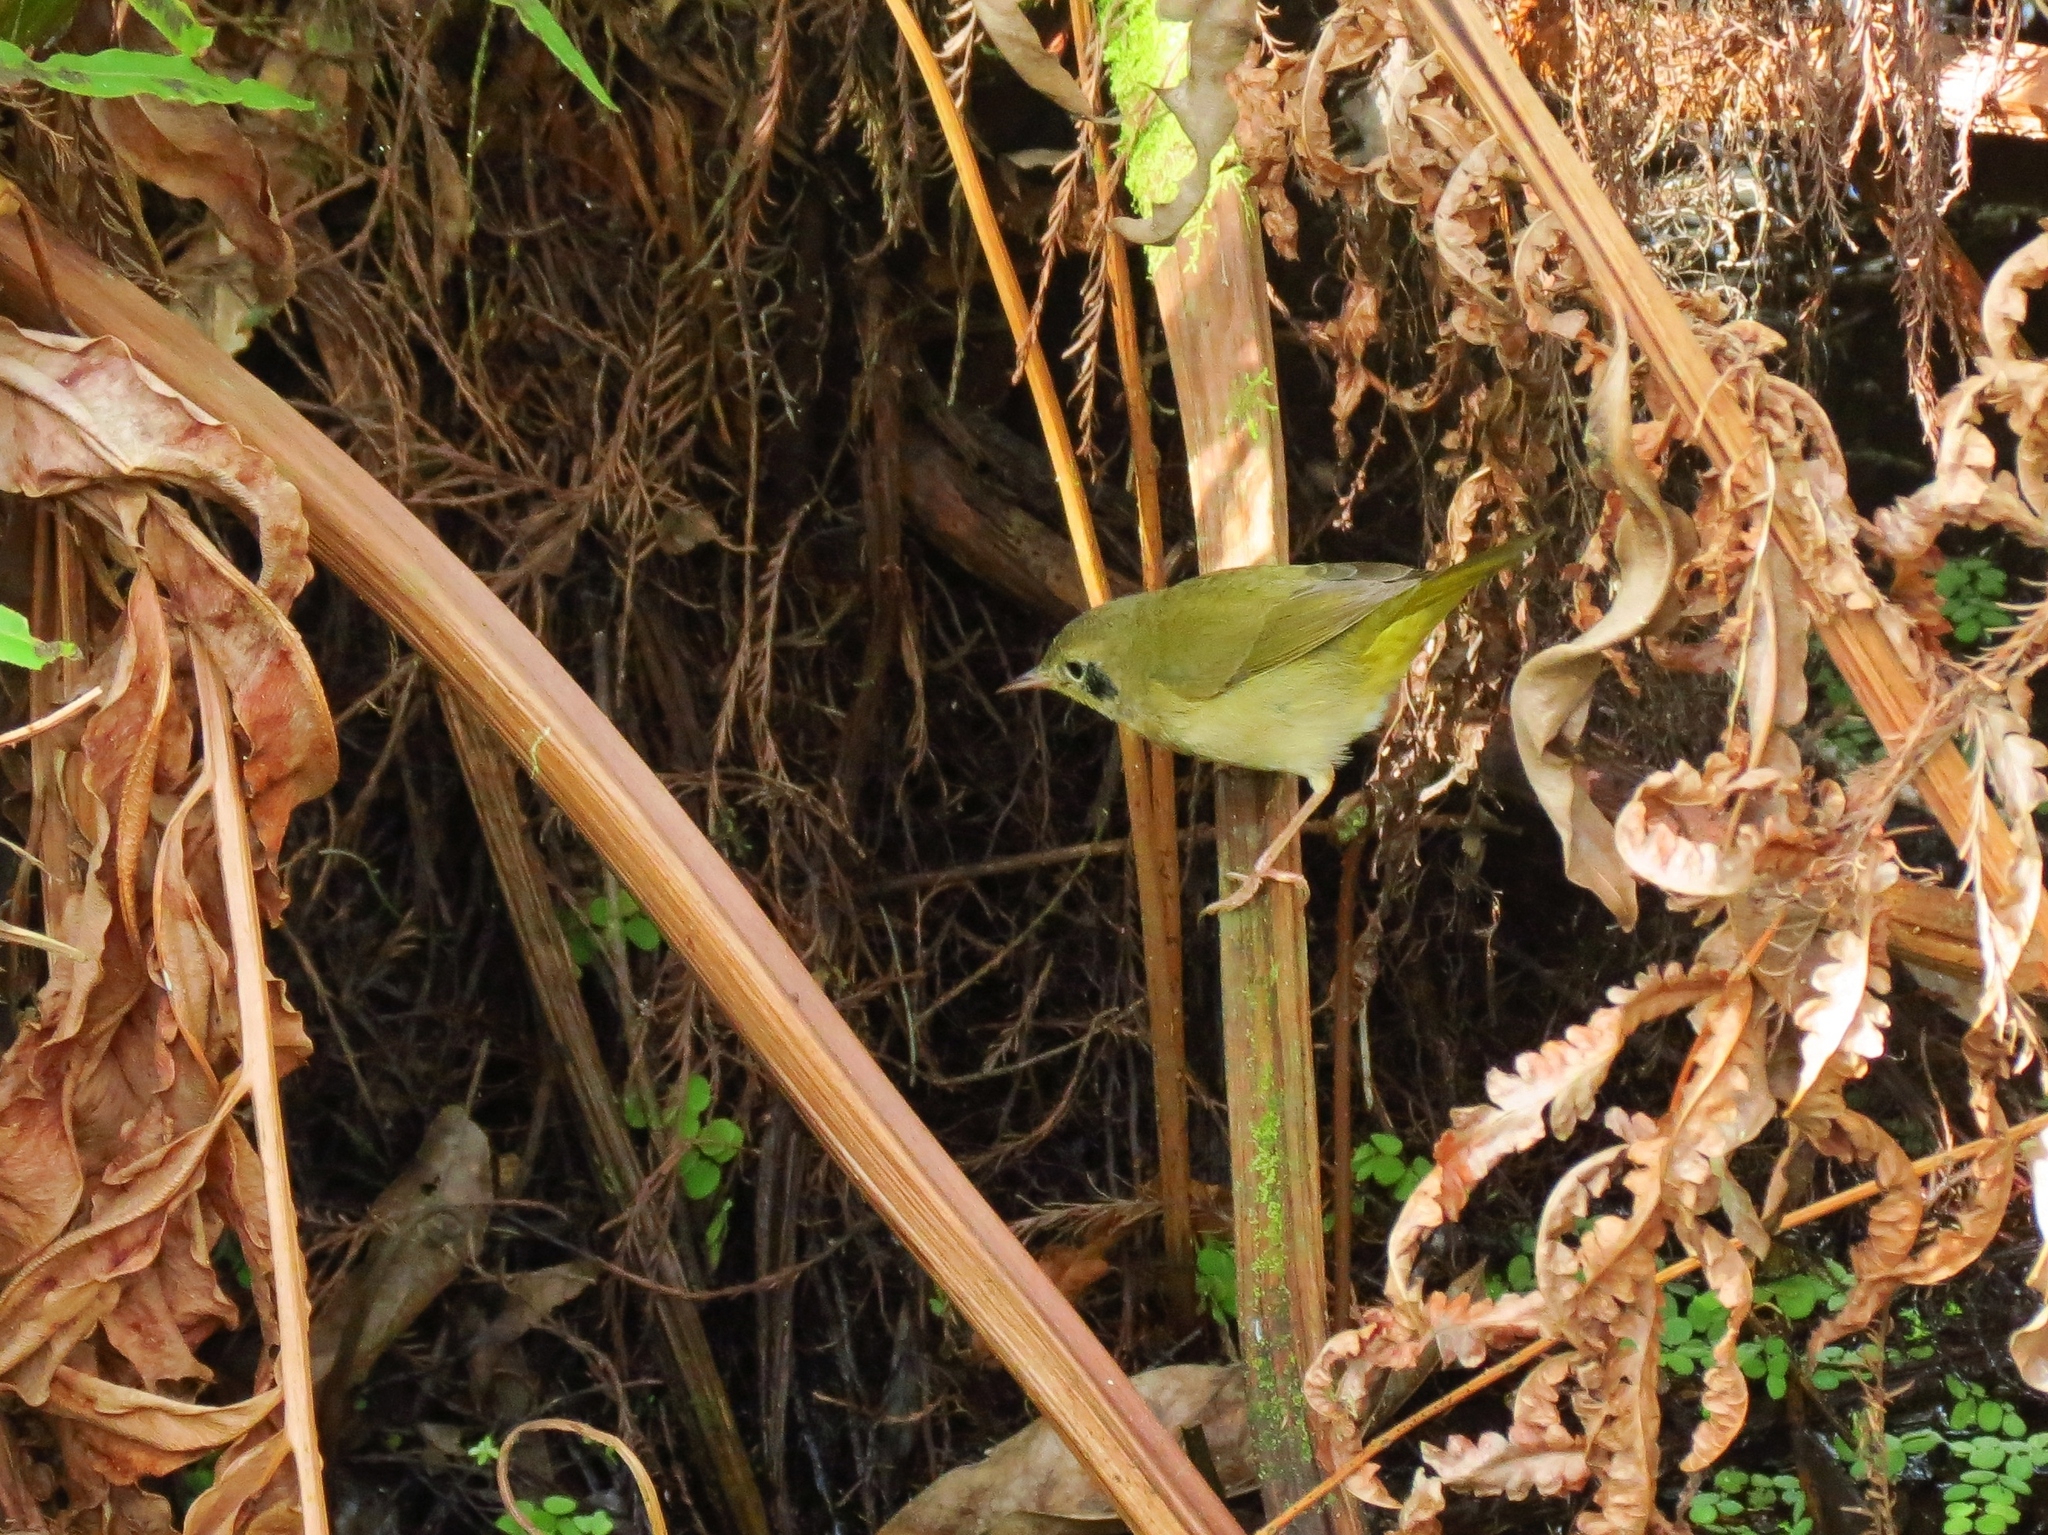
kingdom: Animalia
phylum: Chordata
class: Aves
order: Passeriformes
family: Parulidae
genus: Geothlypis
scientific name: Geothlypis trichas
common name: Common yellowthroat
